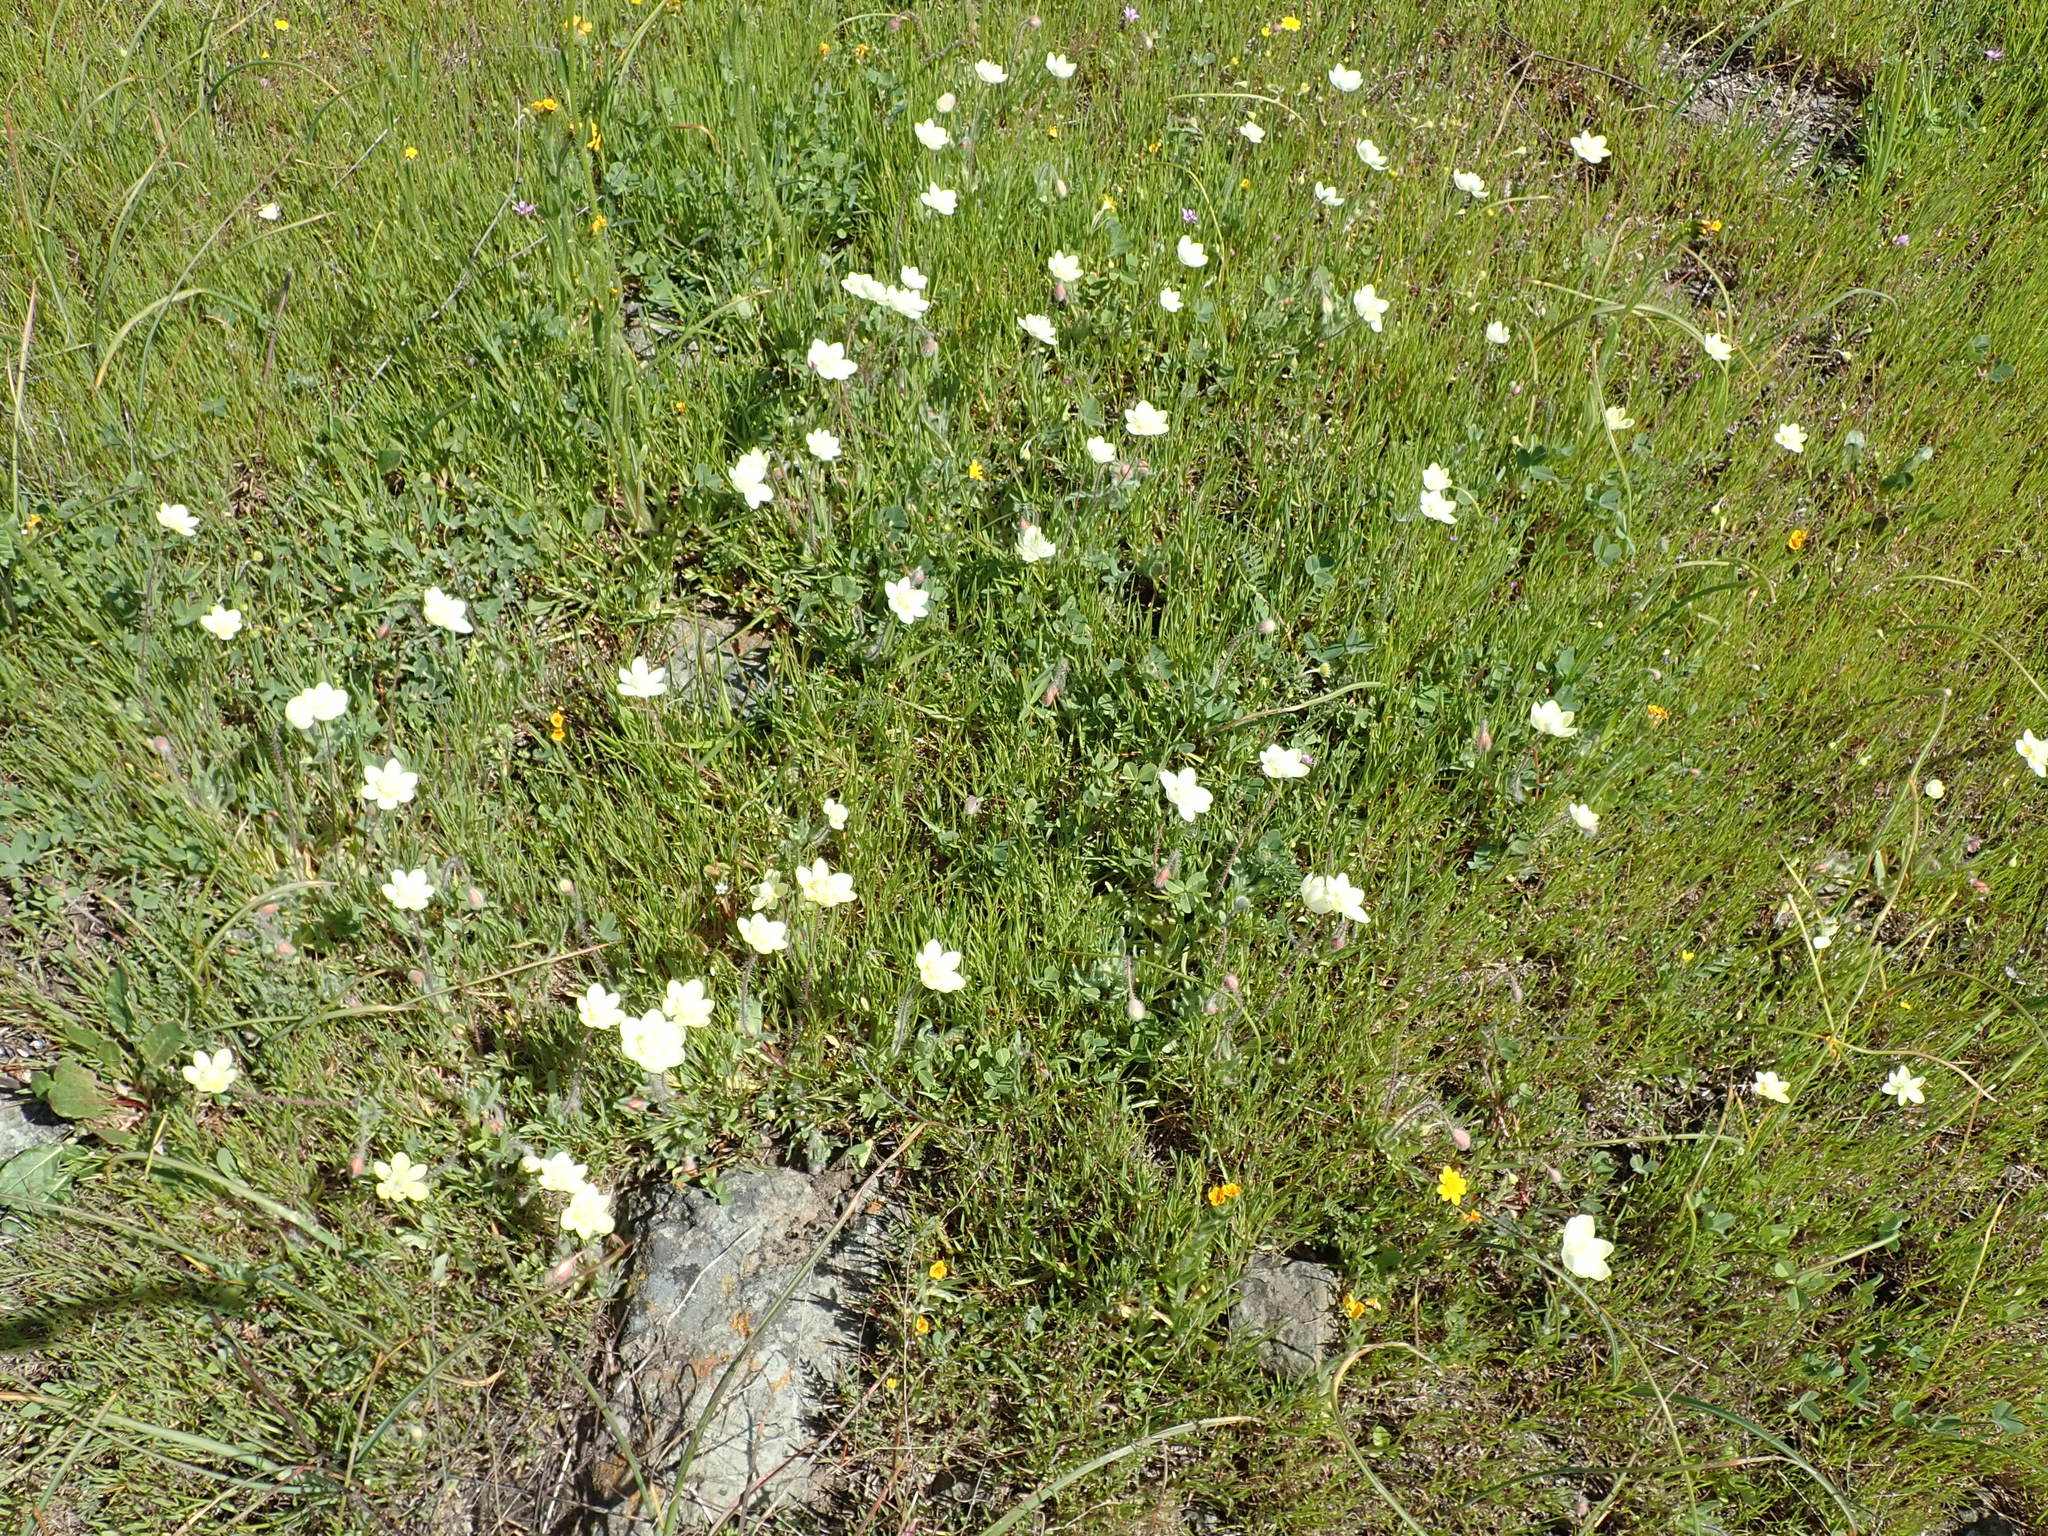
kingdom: Plantae
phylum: Tracheophyta
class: Magnoliopsida
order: Ranunculales
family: Papaveraceae
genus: Platystemon
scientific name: Platystemon californicus
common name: Cream-cups
